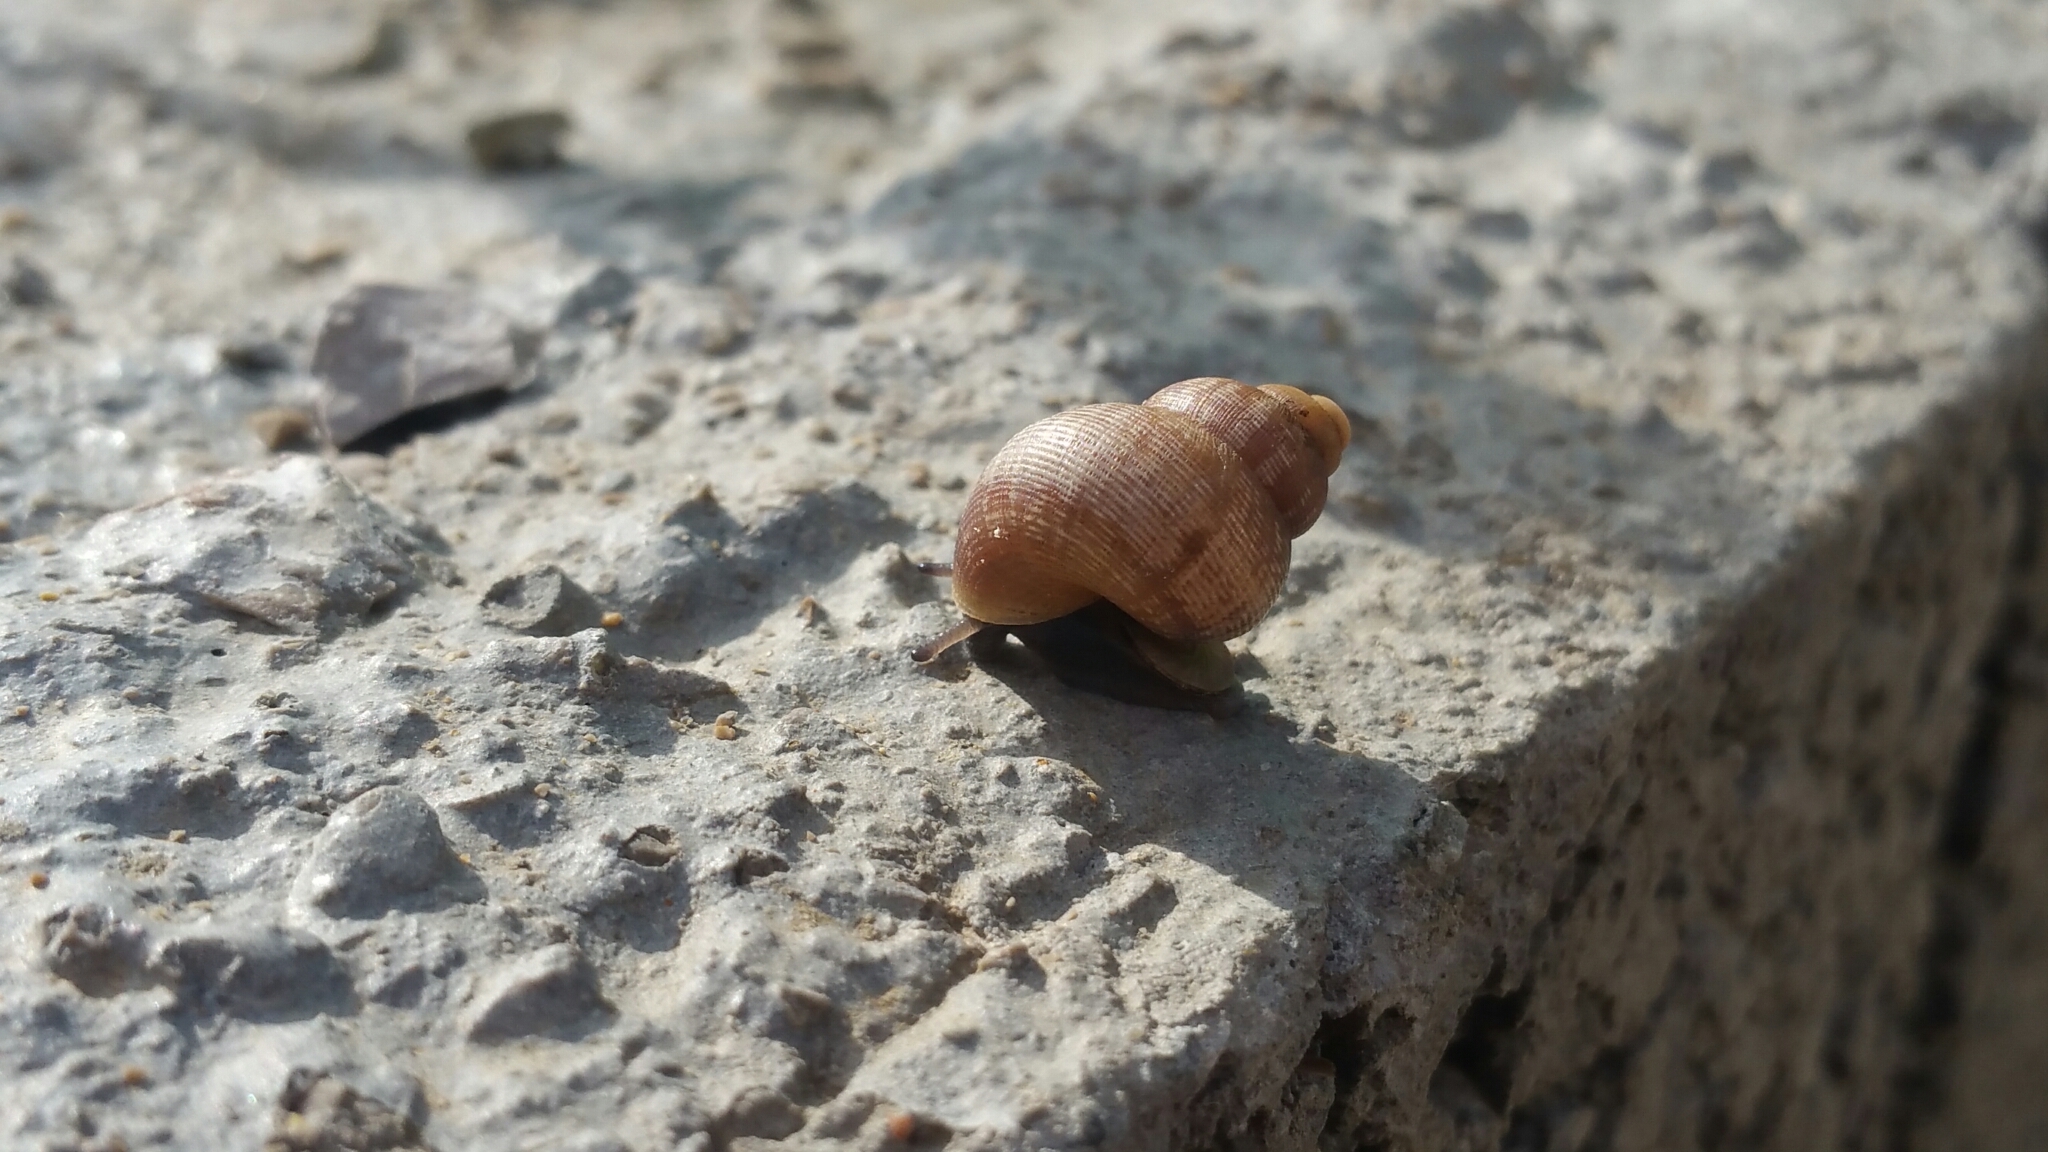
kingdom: Animalia
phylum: Mollusca
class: Gastropoda
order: Littorinimorpha
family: Pomatiidae
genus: Pomatias
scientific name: Pomatias elegans
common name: Red-mouthed snail
